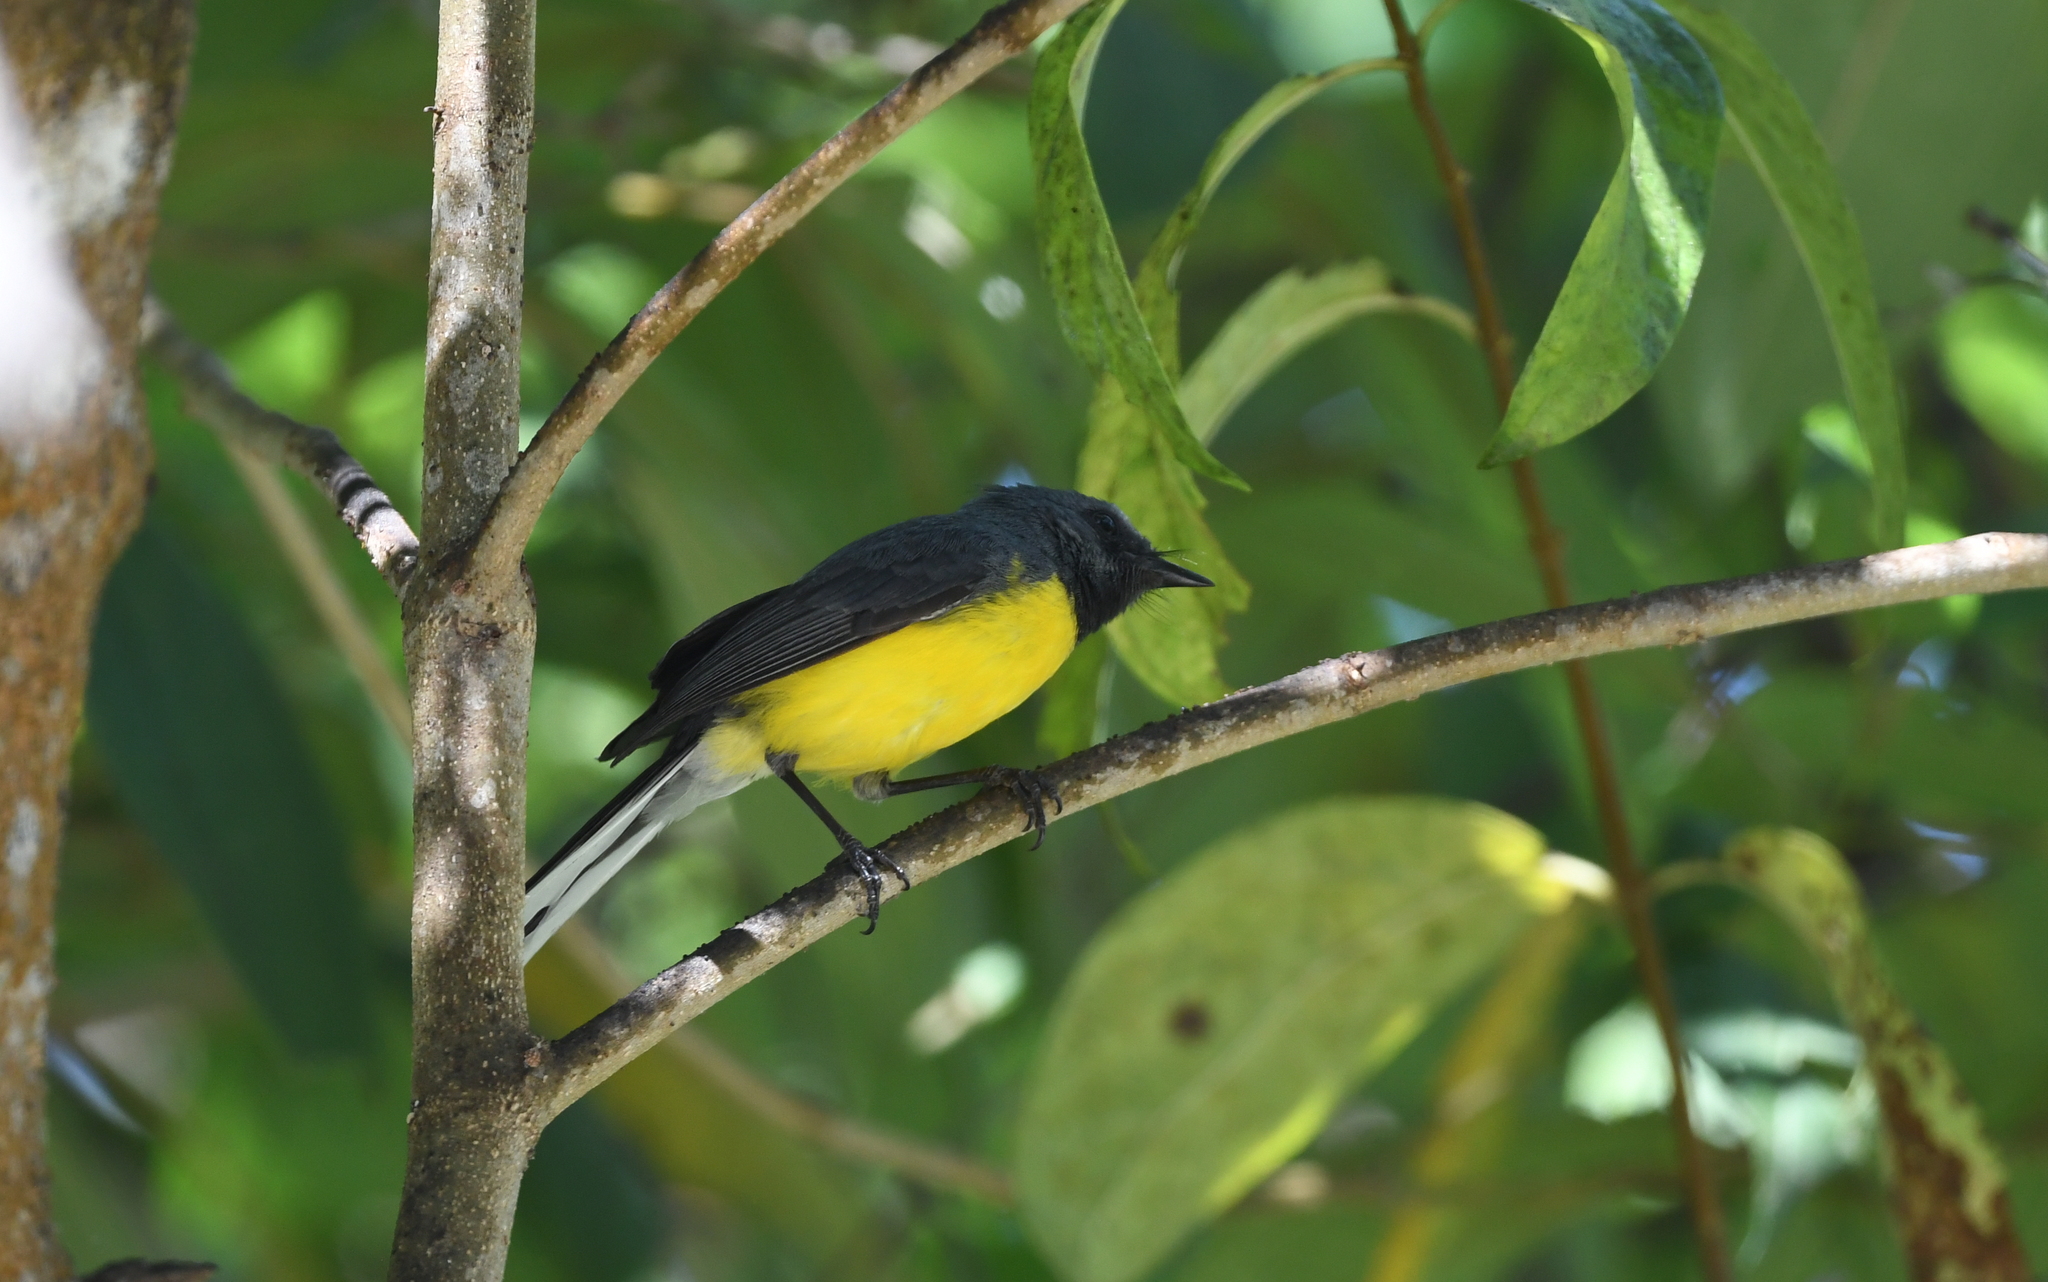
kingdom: Animalia
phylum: Chordata
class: Aves
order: Passeriformes
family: Parulidae
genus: Myioborus
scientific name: Myioborus miniatus
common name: Slate-throated redstart
